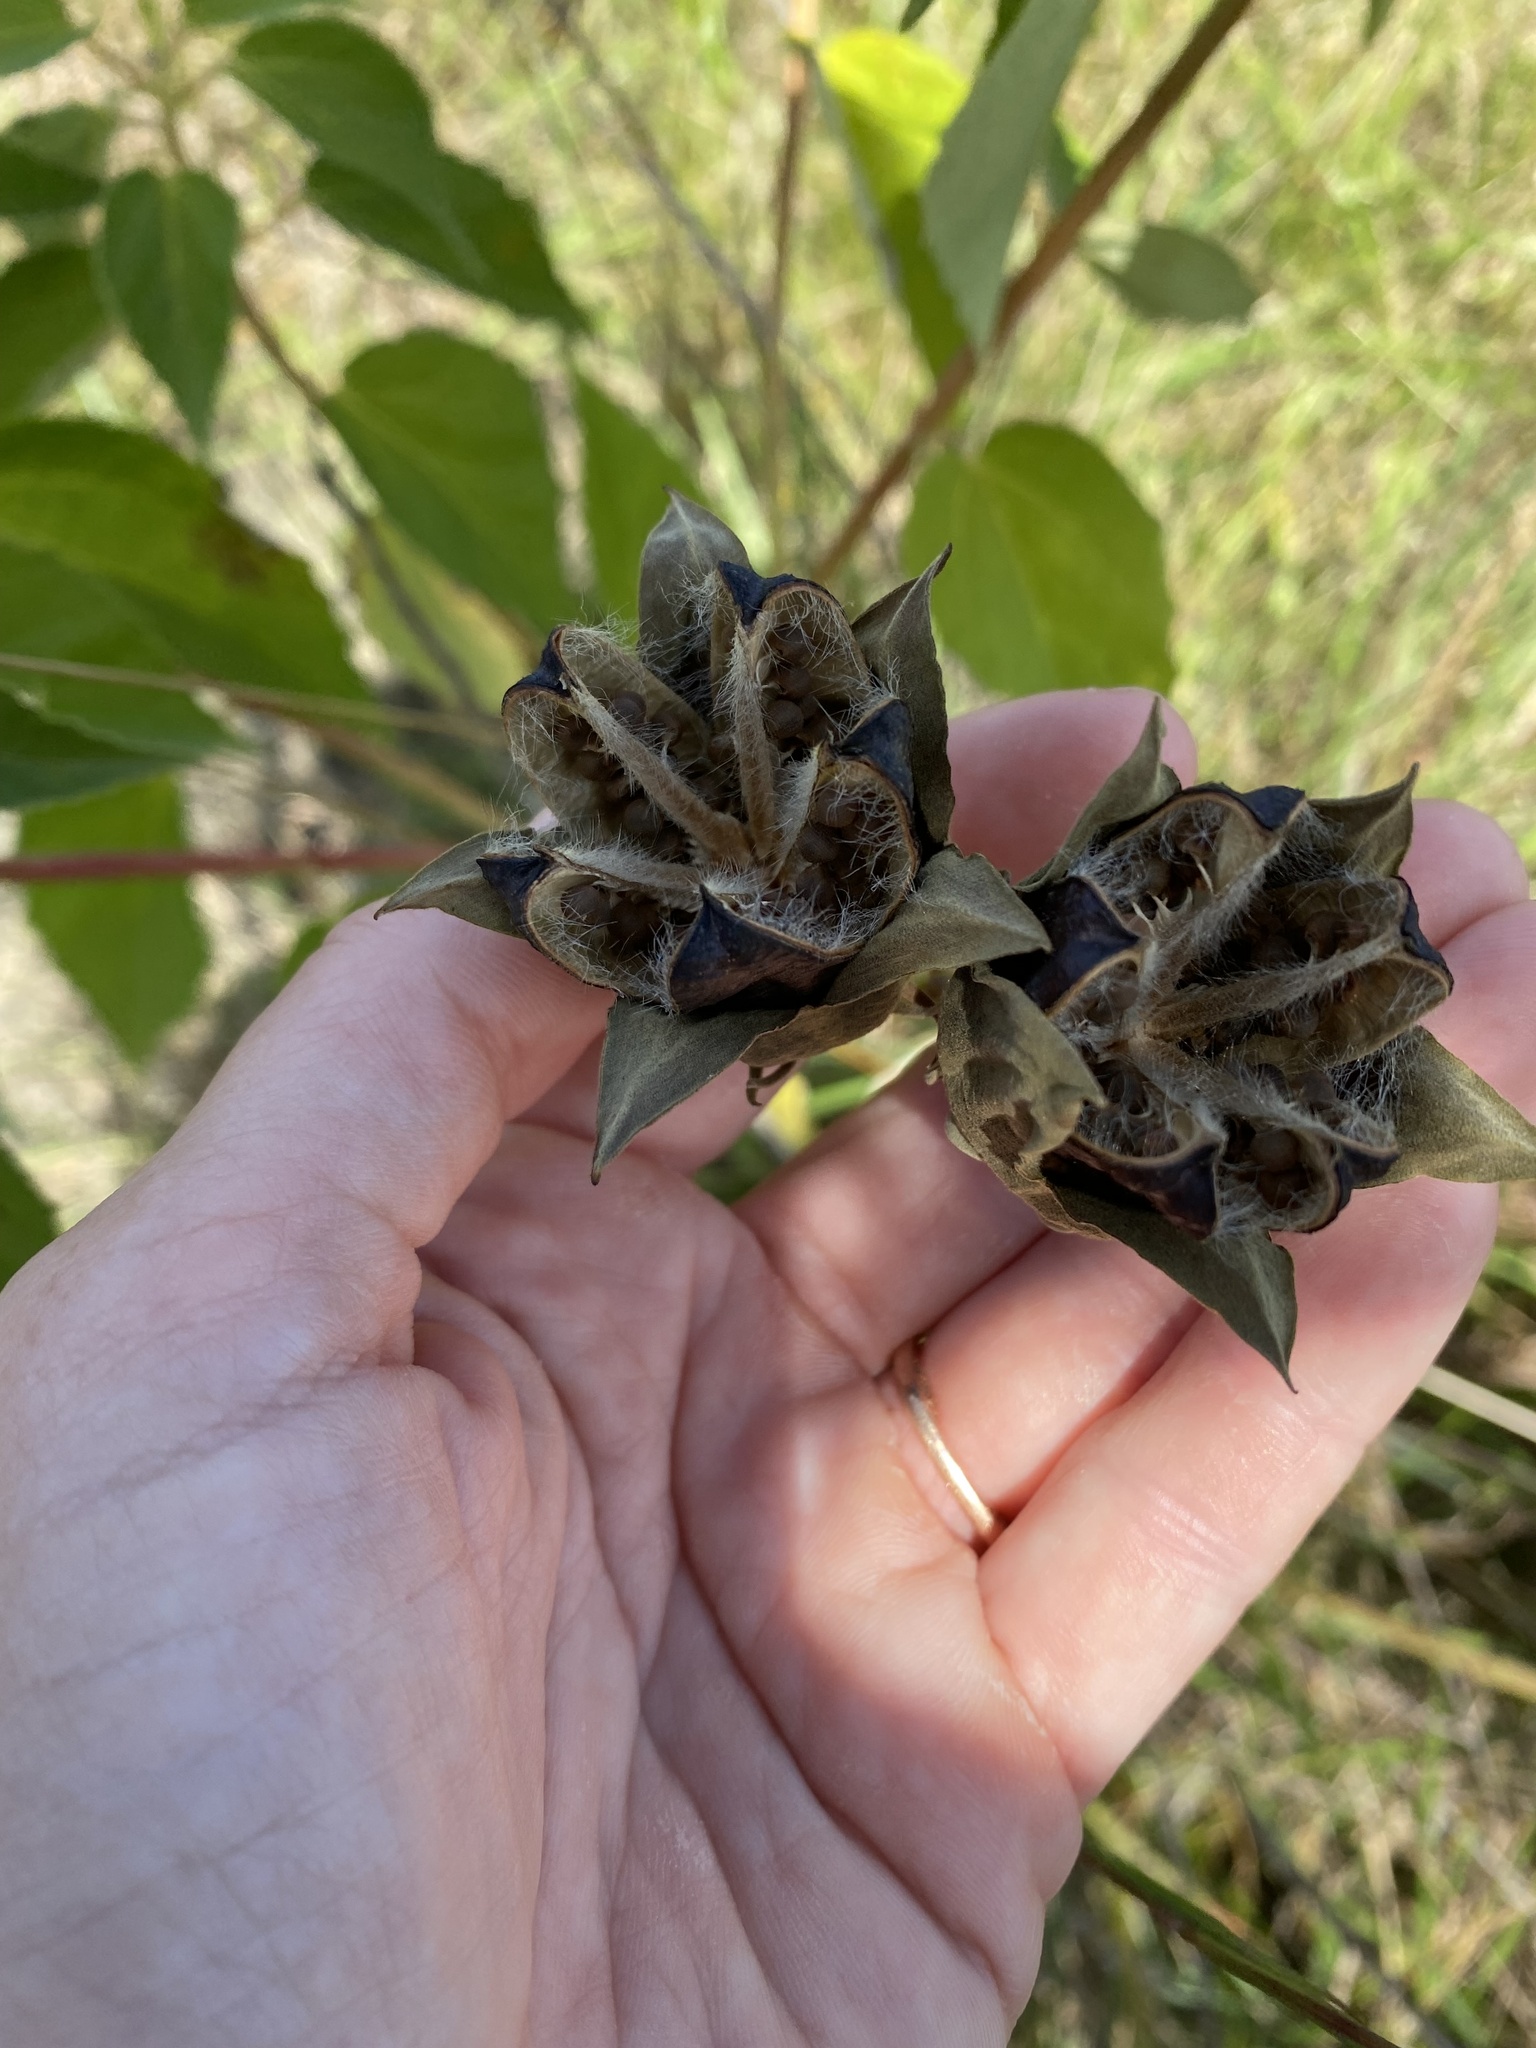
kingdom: Plantae
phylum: Tracheophyta
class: Magnoliopsida
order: Malvales
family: Malvaceae
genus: Hibiscus
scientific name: Hibiscus moscheutos
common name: Common rose-mallow
